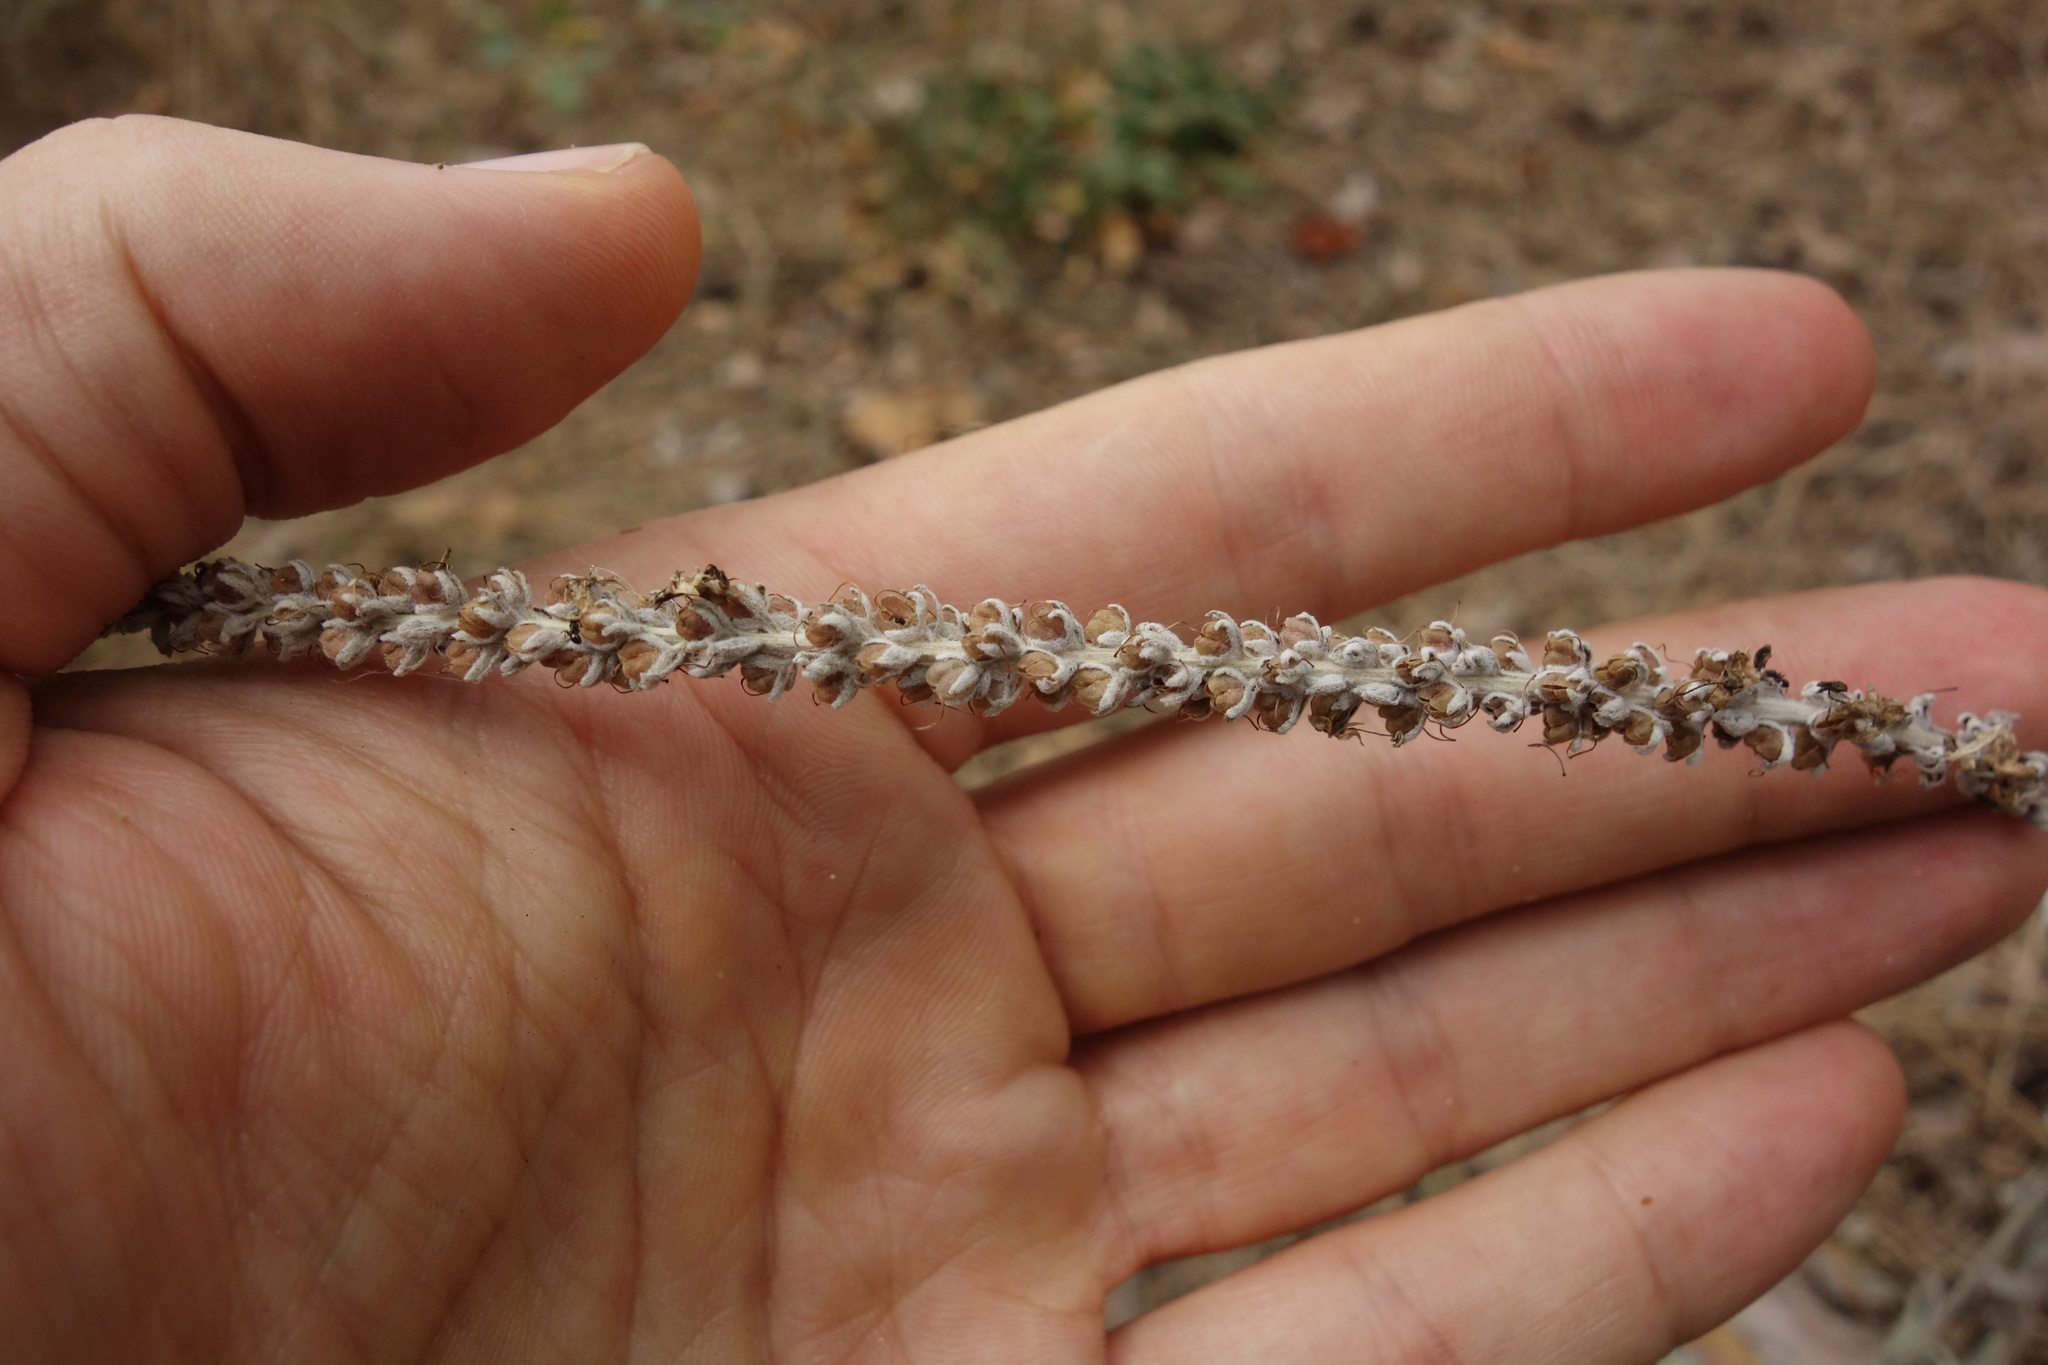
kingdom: Plantae
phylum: Tracheophyta
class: Magnoliopsida
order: Lamiales
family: Plantaginaceae
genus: Veronica
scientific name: Veronica incana
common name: Silver speedwell
